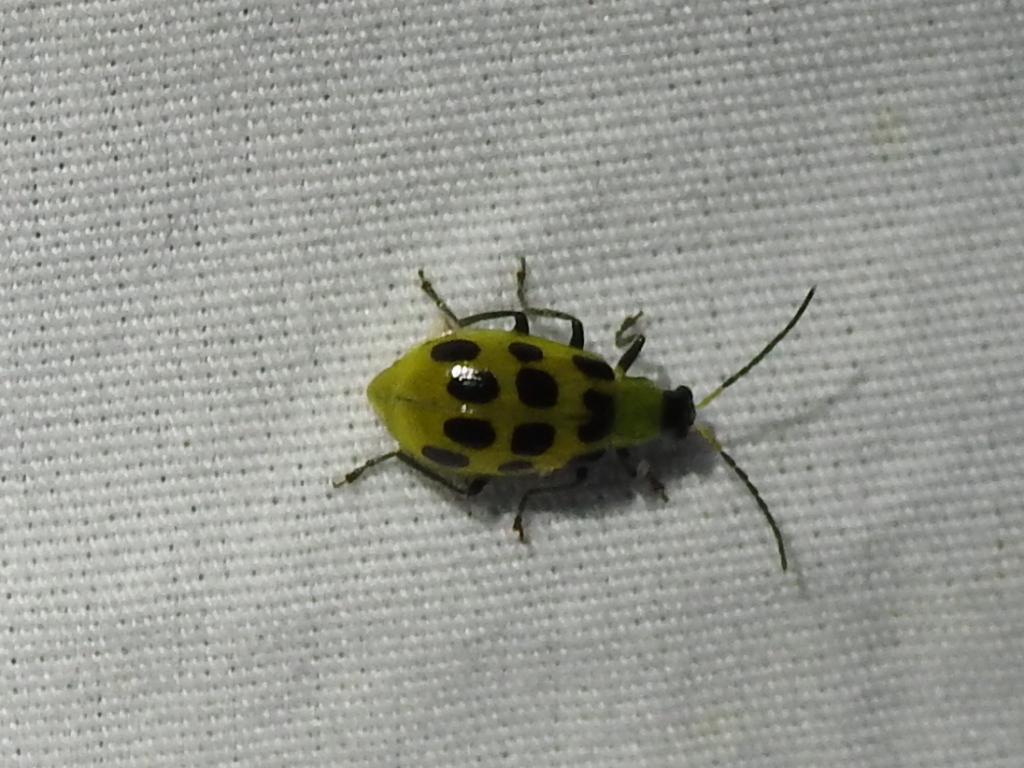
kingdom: Animalia
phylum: Arthropoda
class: Insecta
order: Coleoptera
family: Chrysomelidae
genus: Diabrotica
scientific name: Diabrotica undecimpunctata
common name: Spotted cucumber beetle
